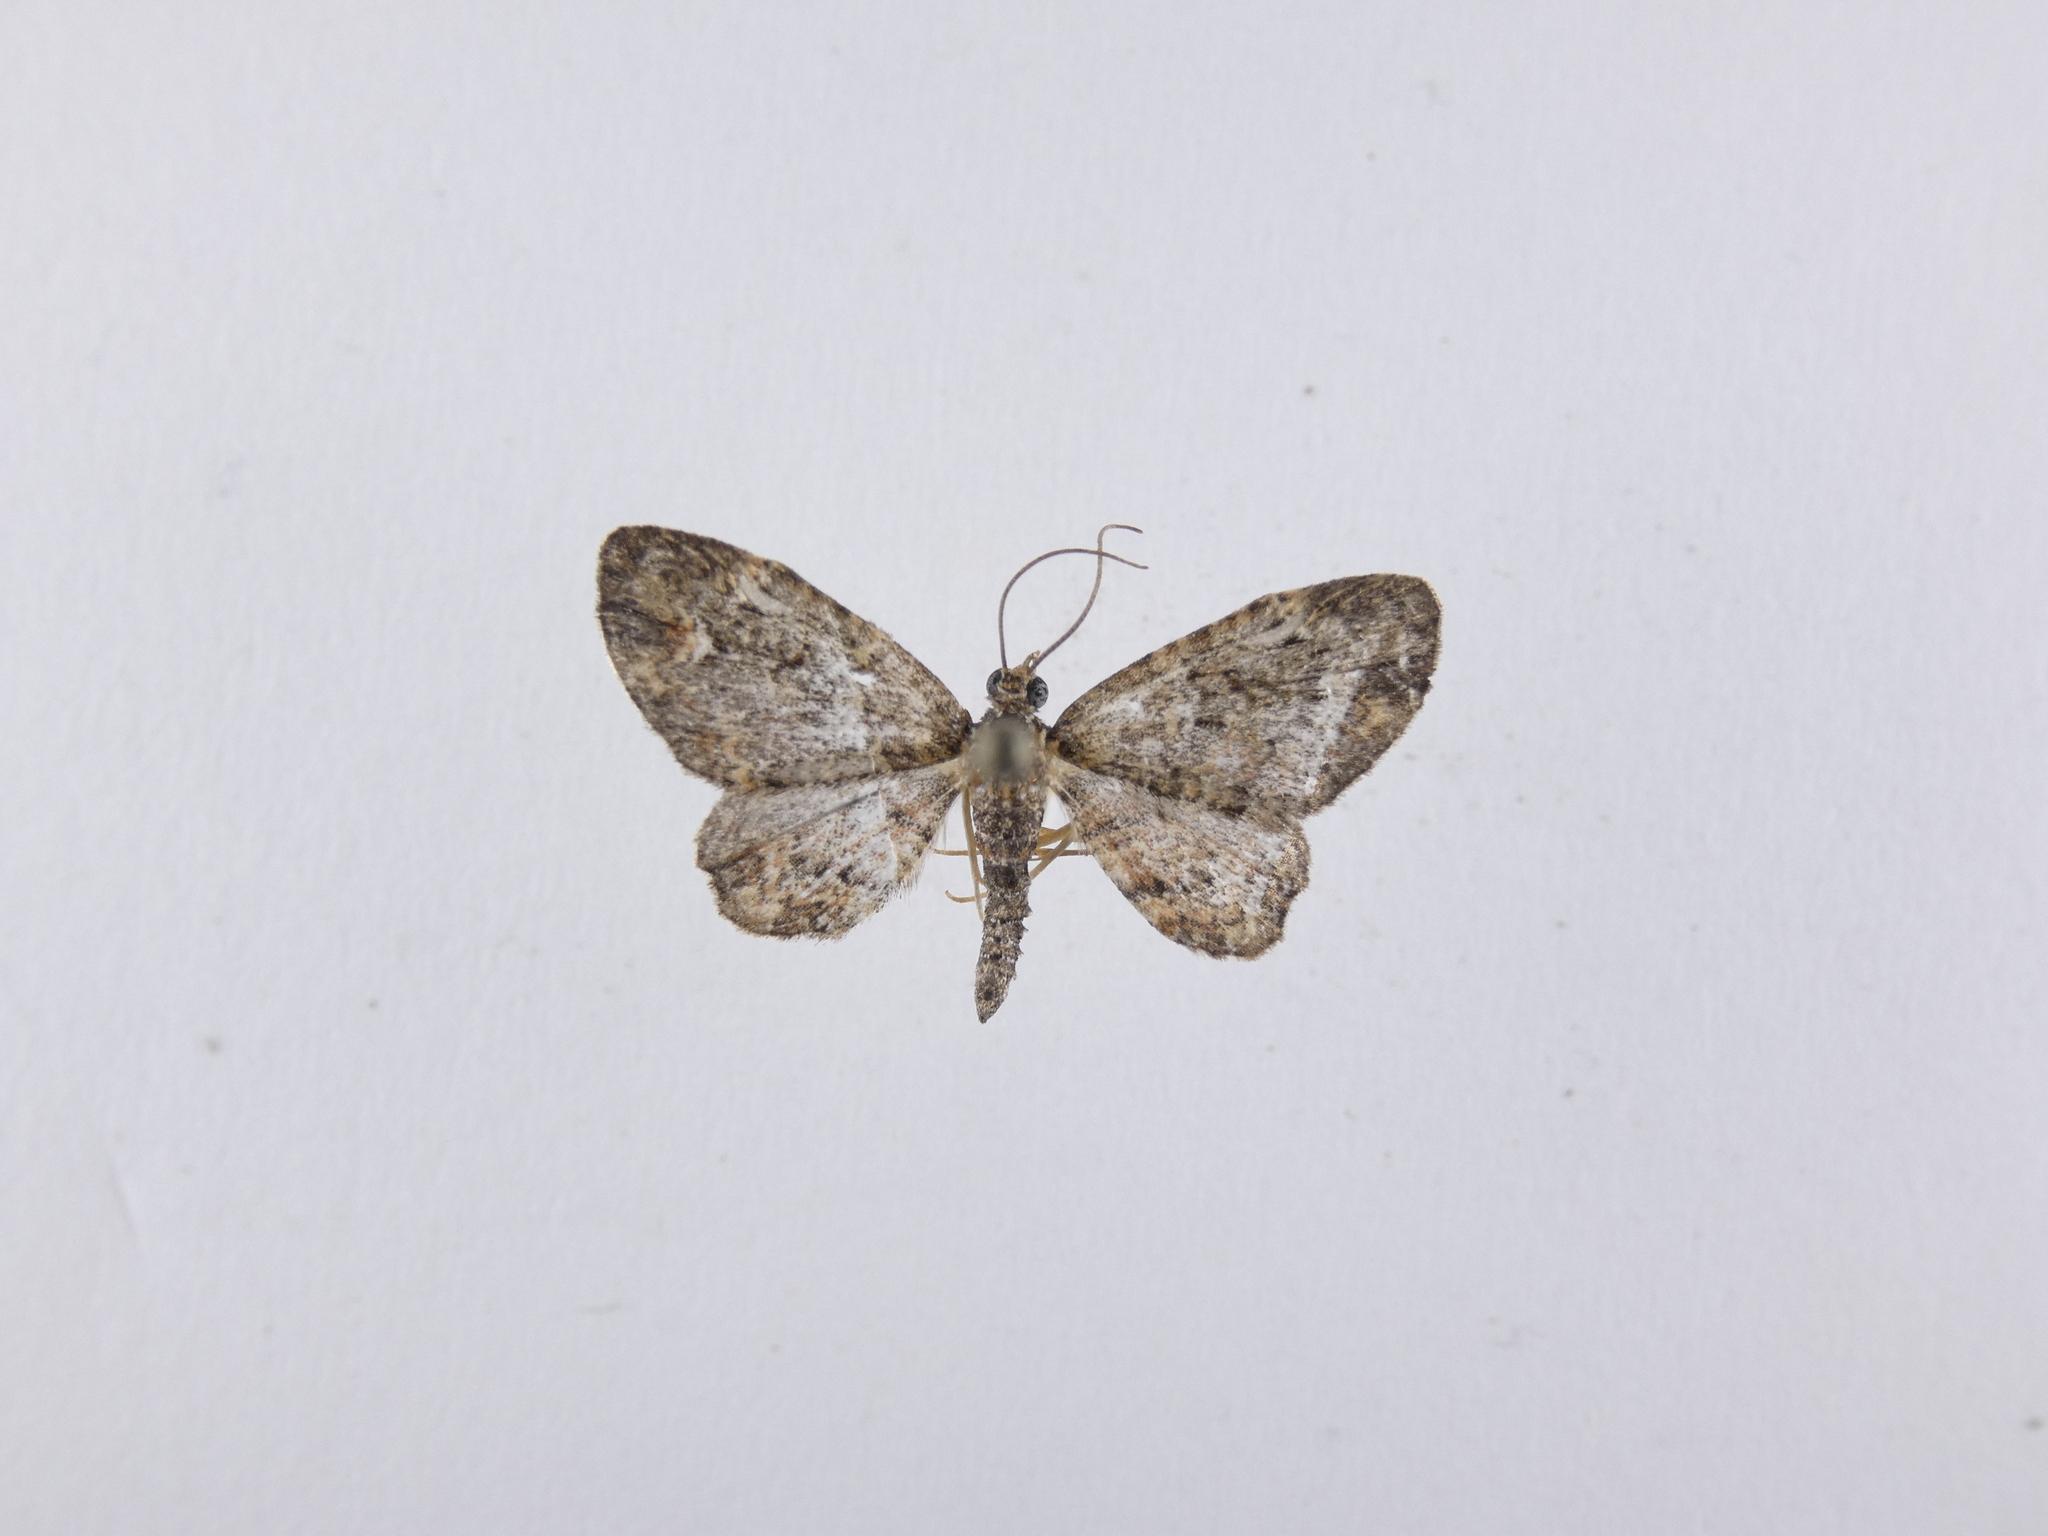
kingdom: Animalia
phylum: Arthropoda
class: Insecta
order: Lepidoptera
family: Geometridae
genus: Pasiphilodes
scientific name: Pasiphilodes testulata
